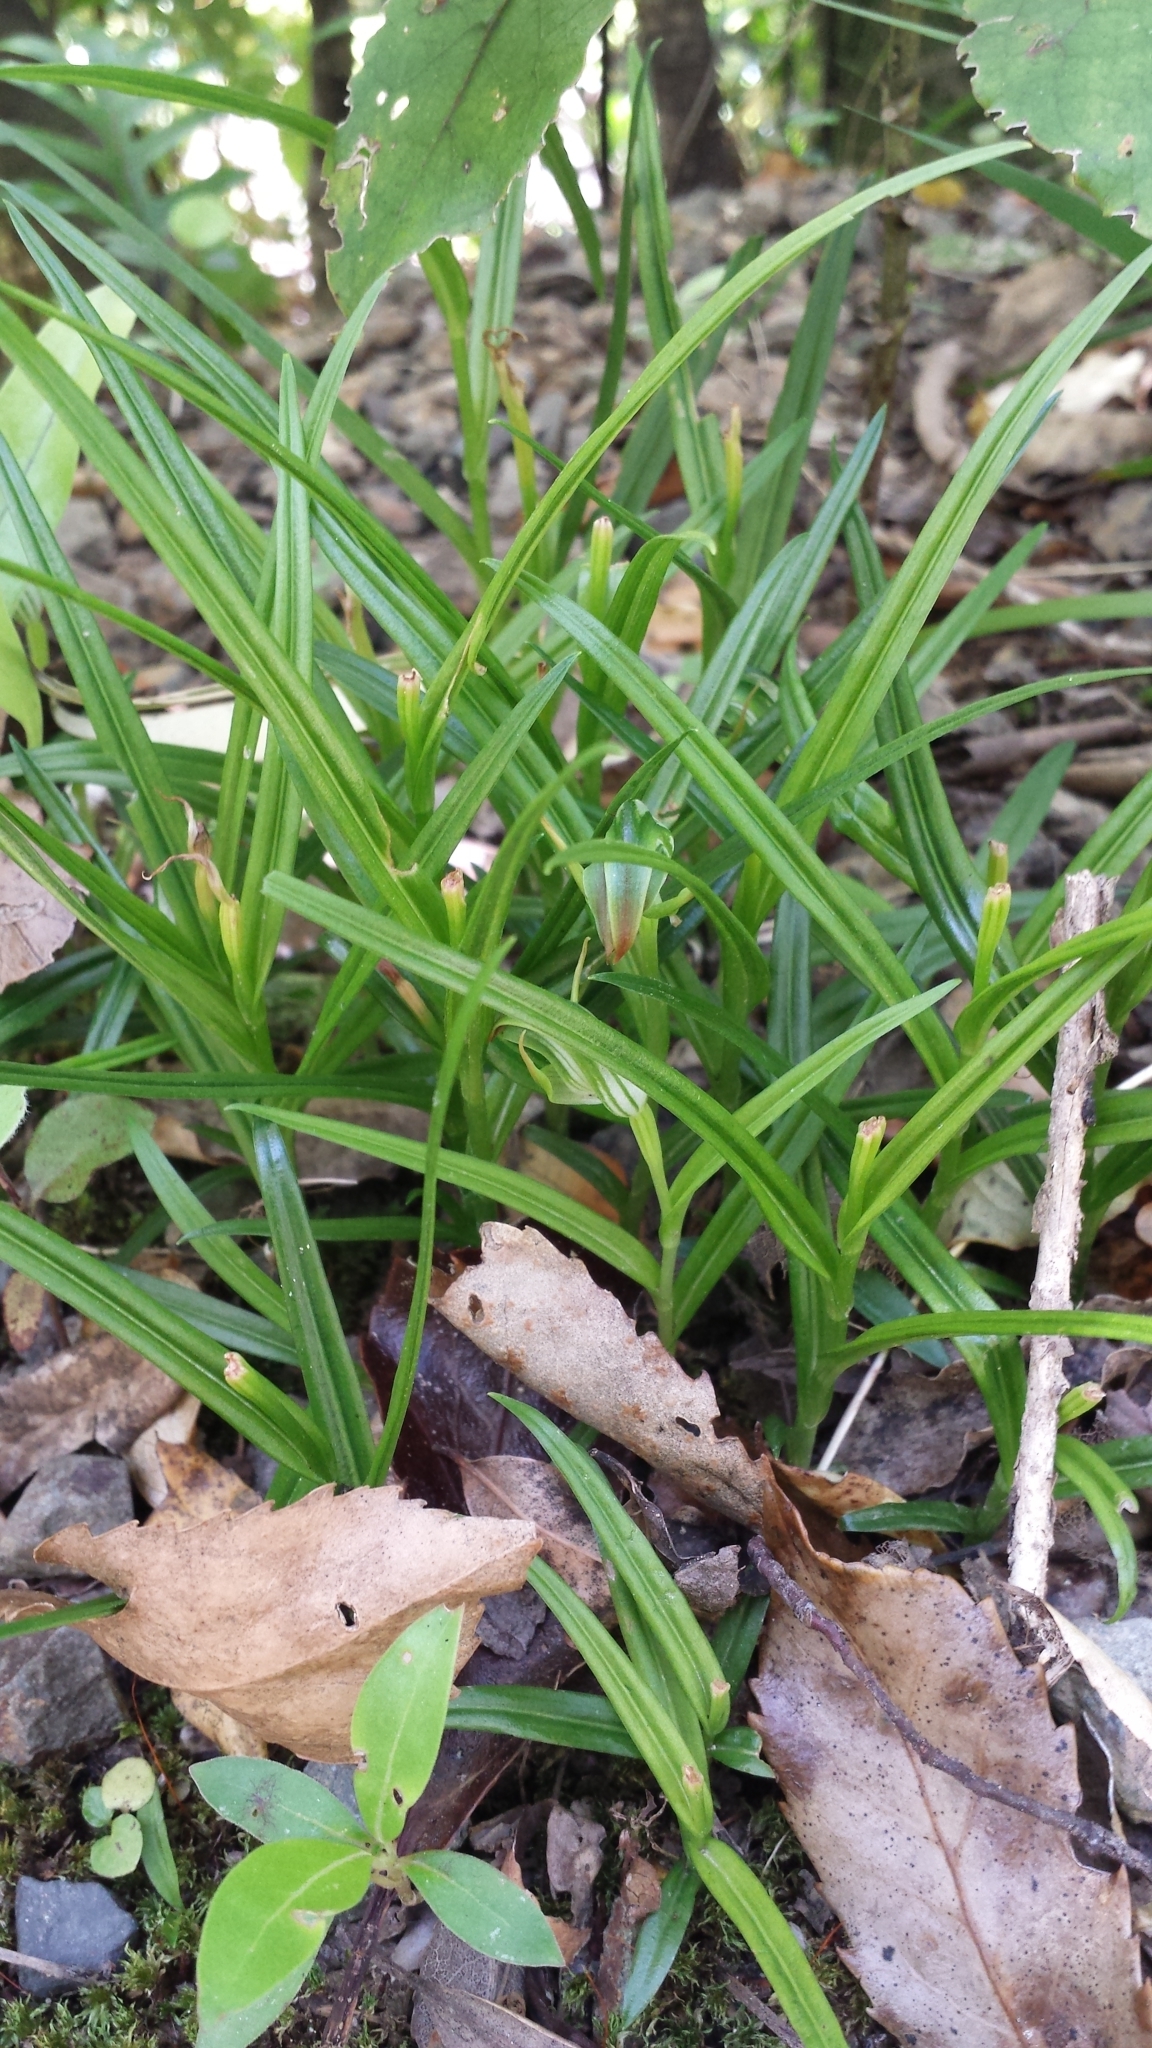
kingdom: Plantae
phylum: Tracheophyta
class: Liliopsida
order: Asparagales
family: Orchidaceae
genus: Pterostylis
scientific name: Pterostylis graminea
